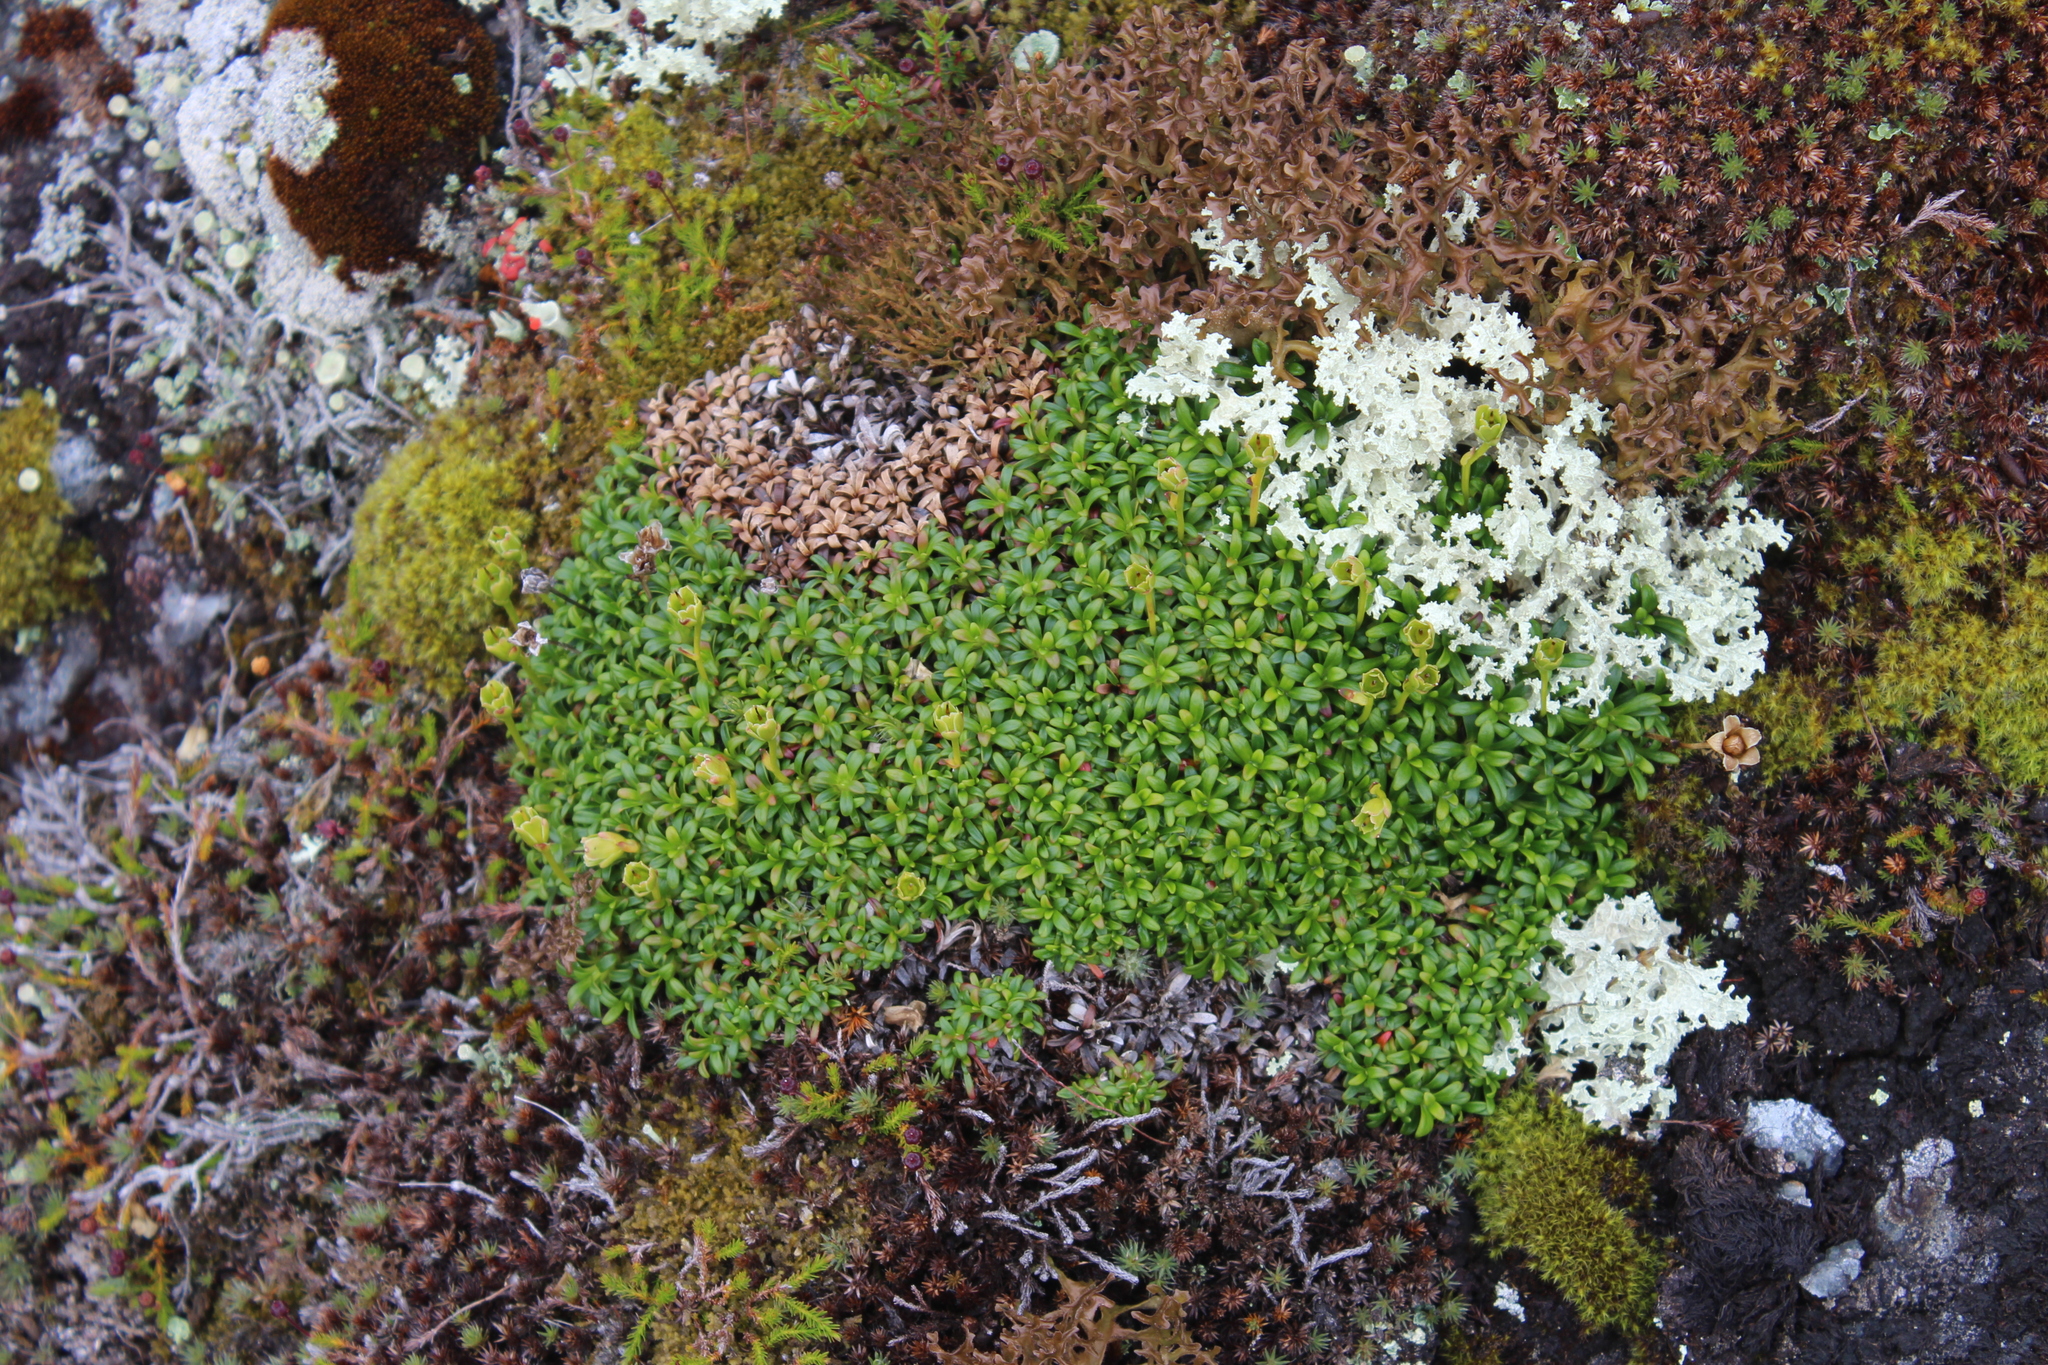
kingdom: Plantae
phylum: Tracheophyta
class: Magnoliopsida
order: Ericales
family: Diapensiaceae
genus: Diapensia
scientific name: Diapensia lapponica
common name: Diapensia
